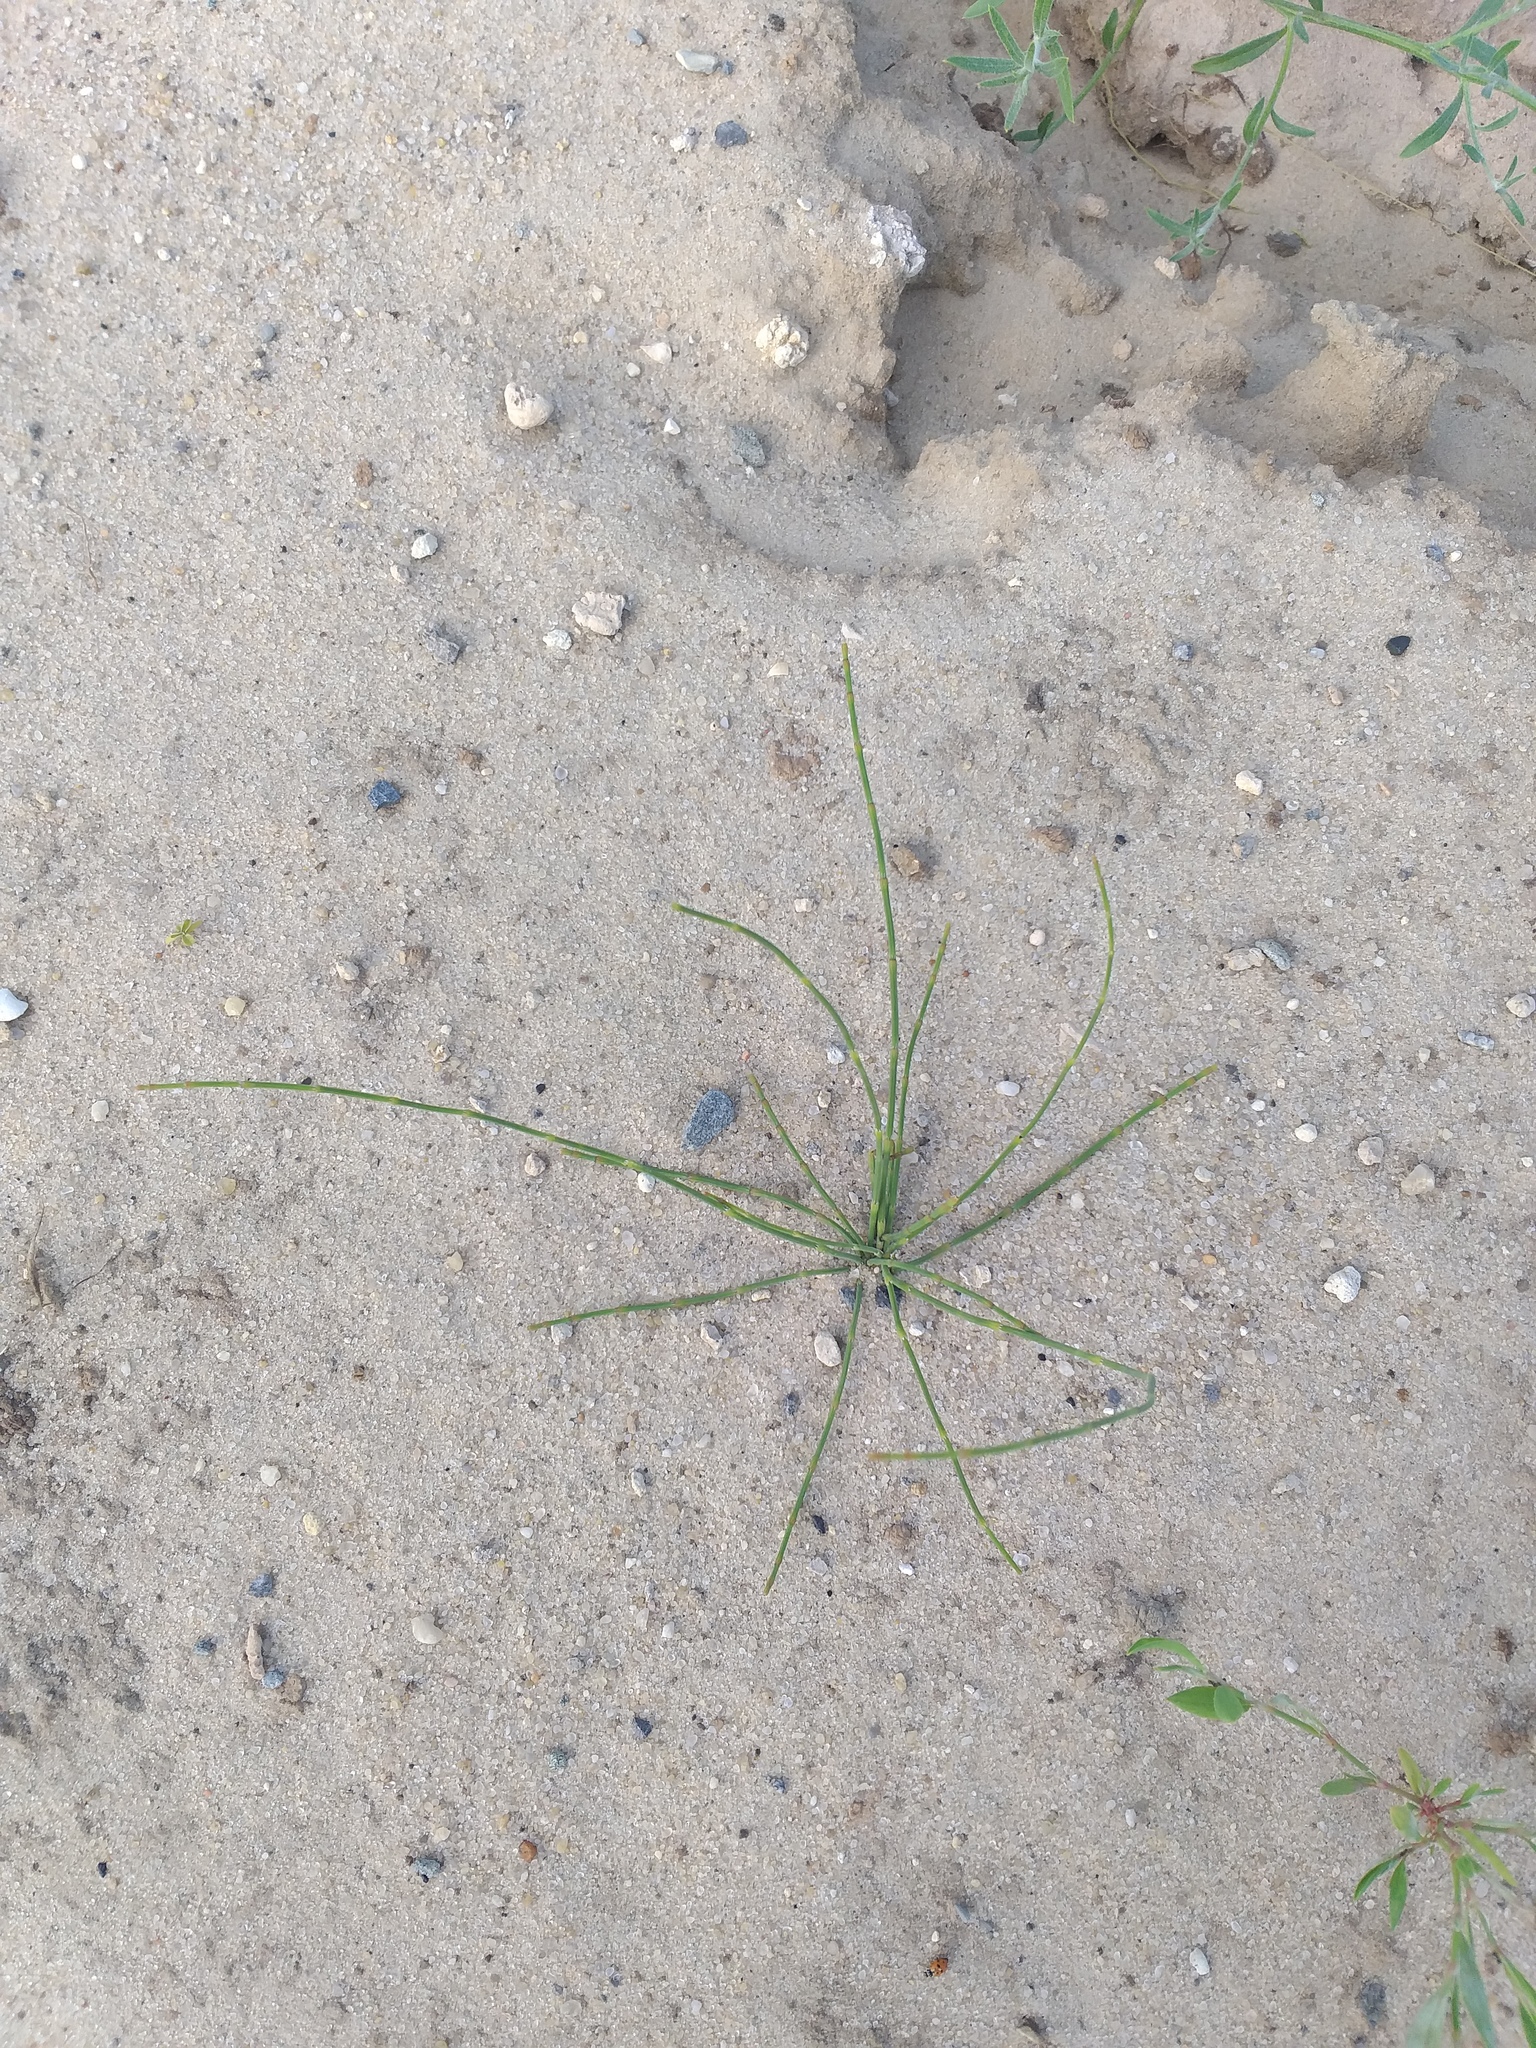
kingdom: Plantae
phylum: Tracheophyta
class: Polypodiopsida
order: Equisetales
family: Equisetaceae
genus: Equisetum
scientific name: Equisetum ramosissimum
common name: Branched horsetail
